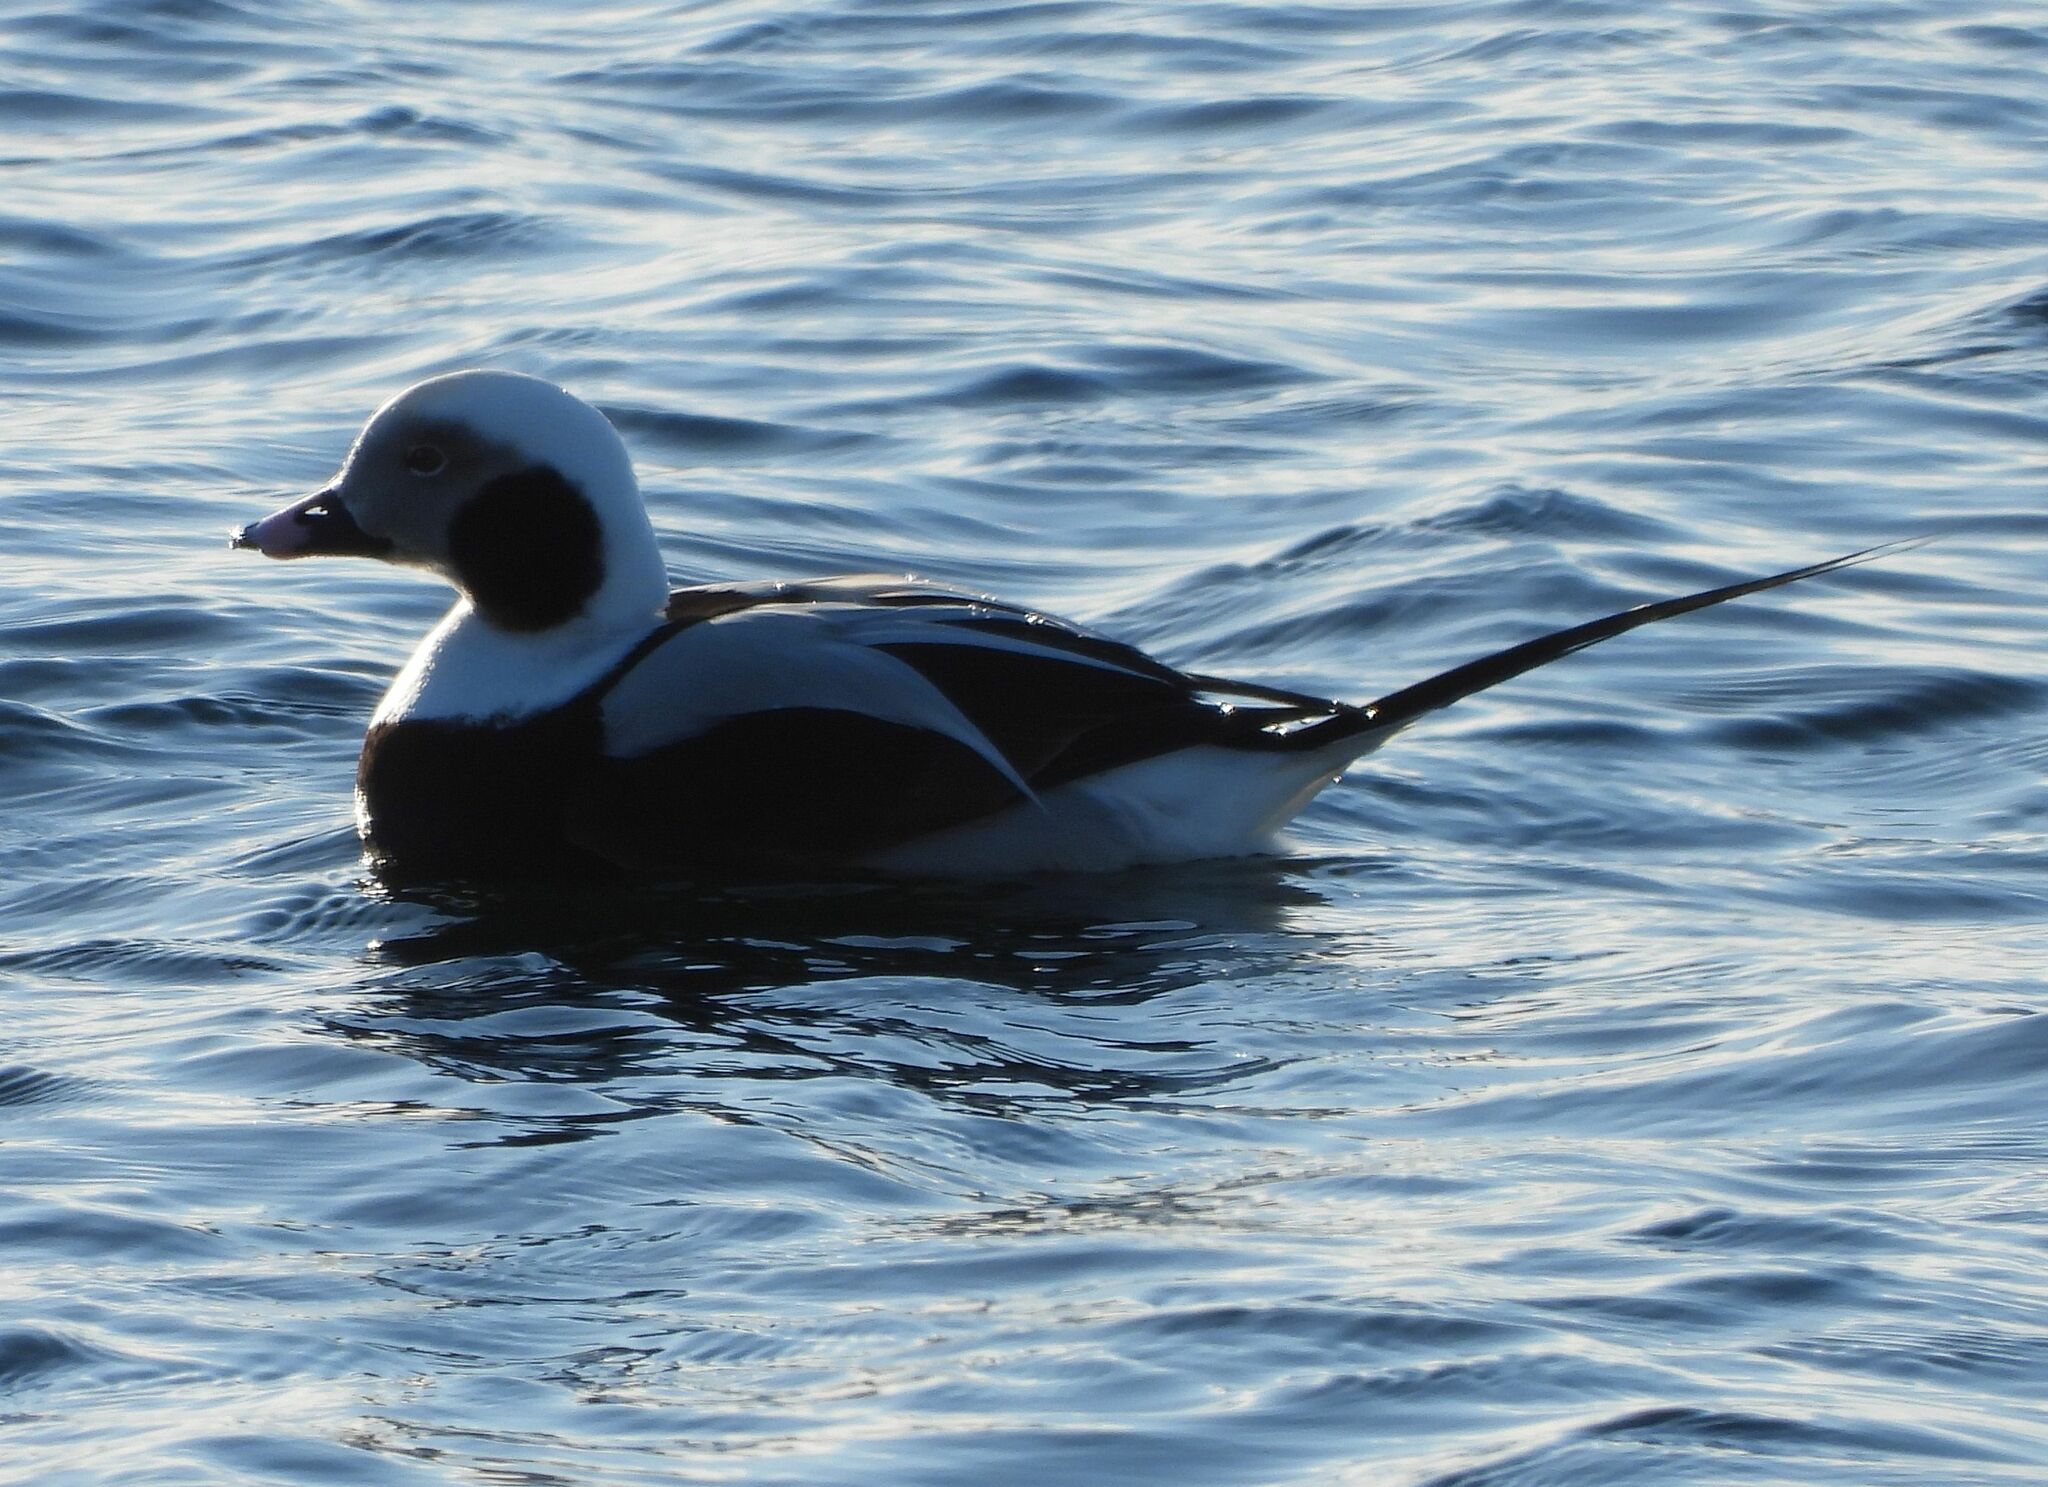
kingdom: Animalia
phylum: Chordata
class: Aves
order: Anseriformes
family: Anatidae
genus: Clangula
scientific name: Clangula hyemalis
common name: Long-tailed duck
